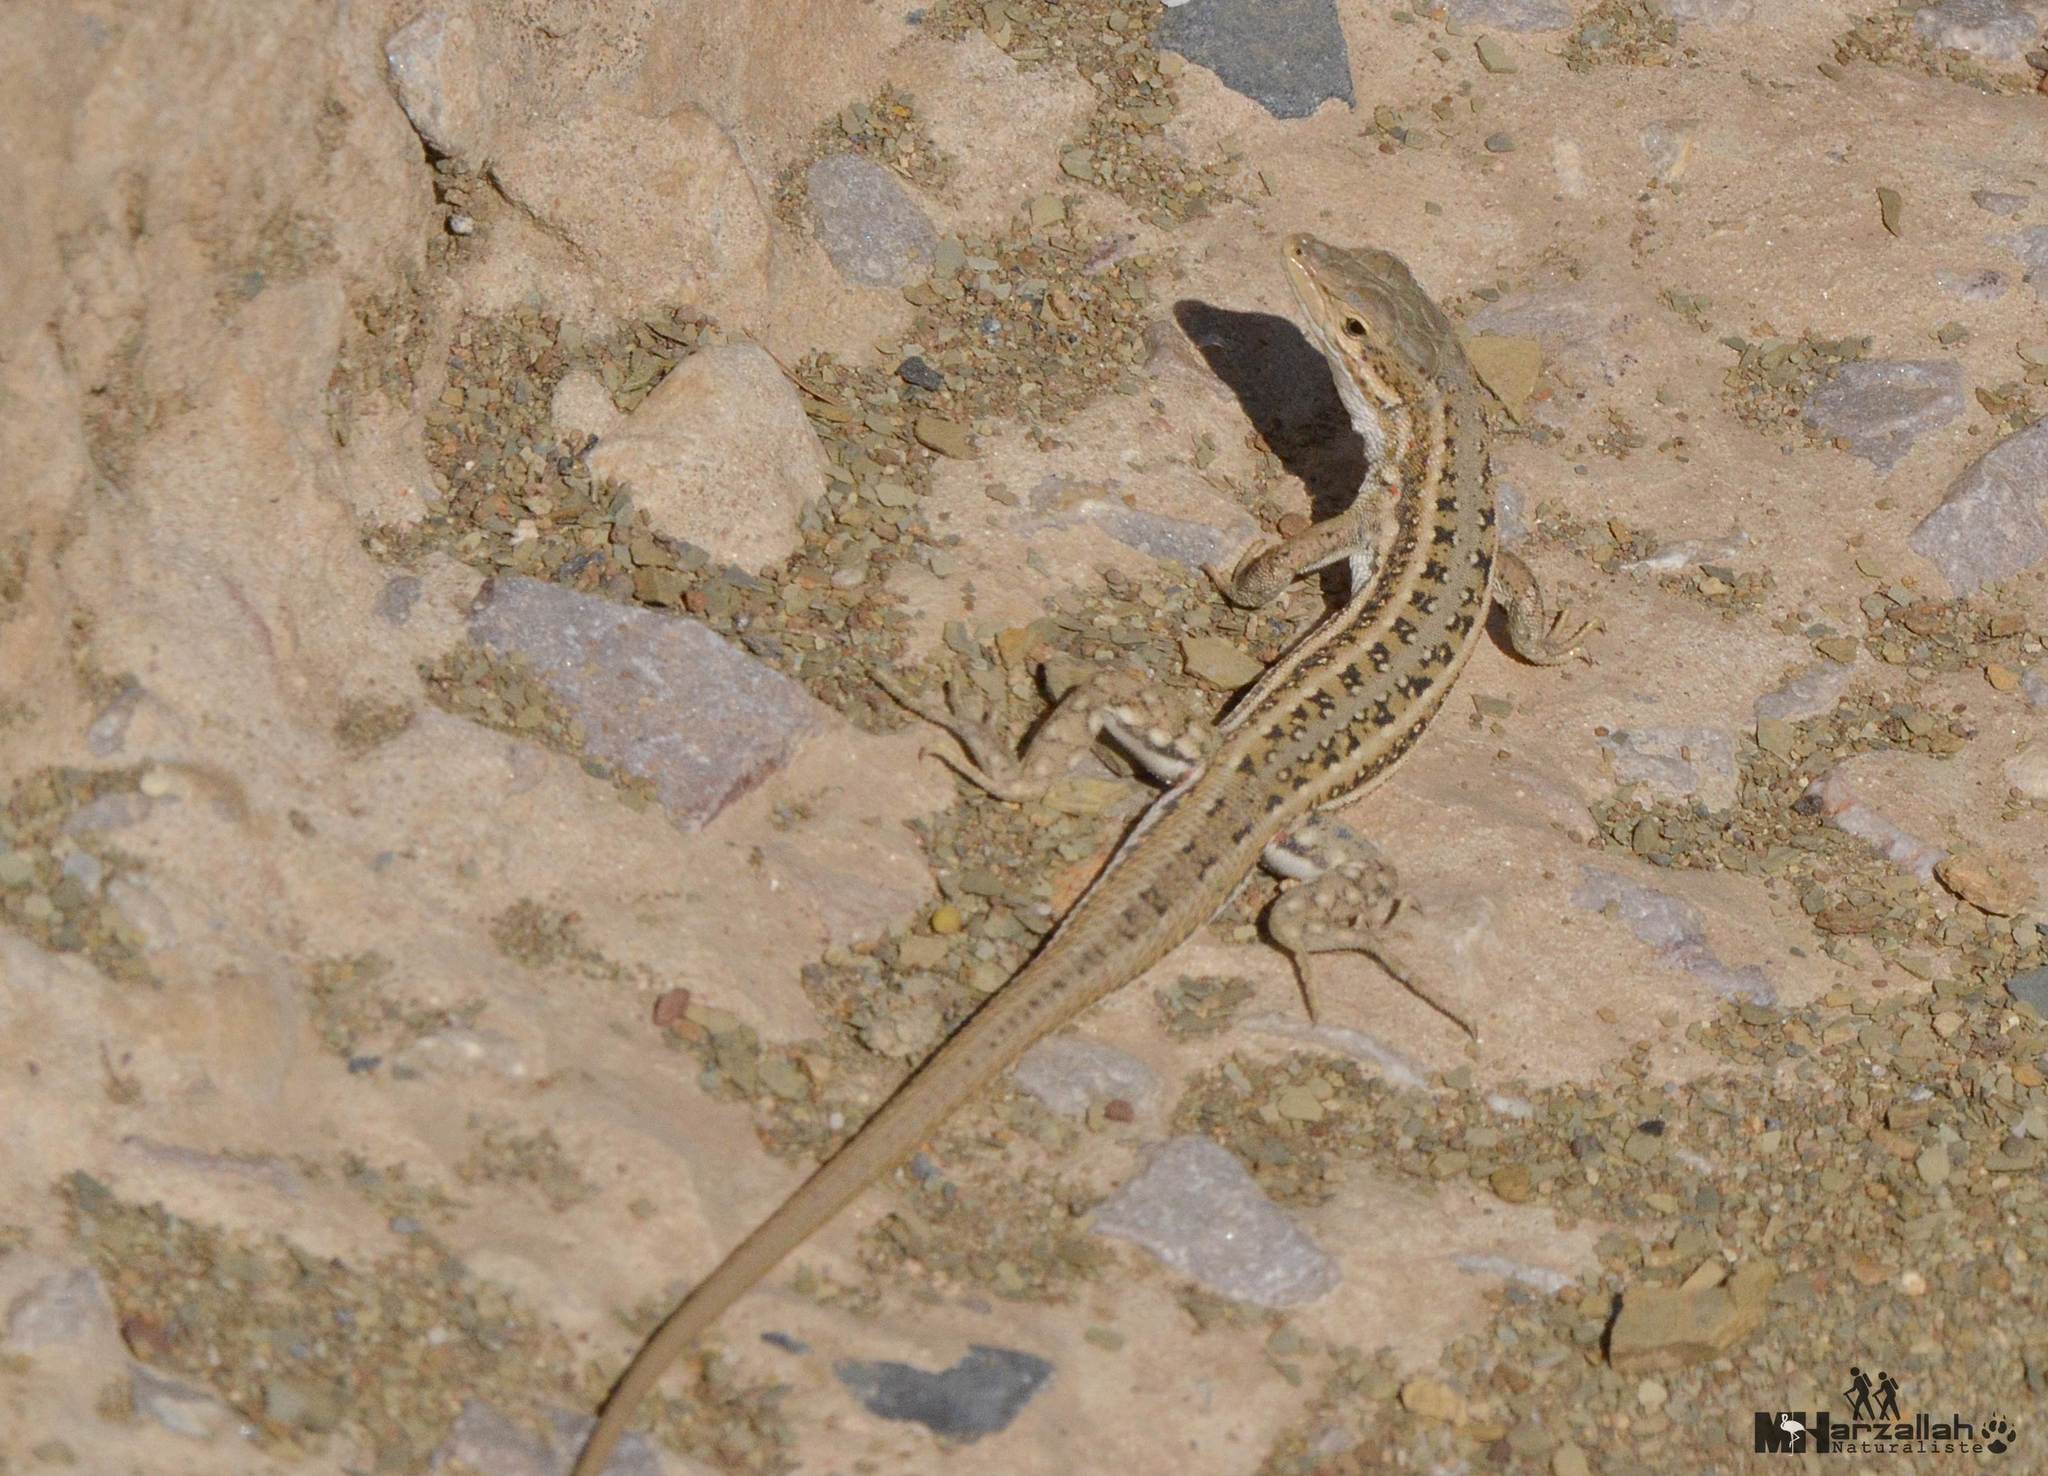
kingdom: Animalia
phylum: Chordata
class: Squamata
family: Lacertidae
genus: Mesalina
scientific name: Mesalina olivieri
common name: Oliver's desert racer
